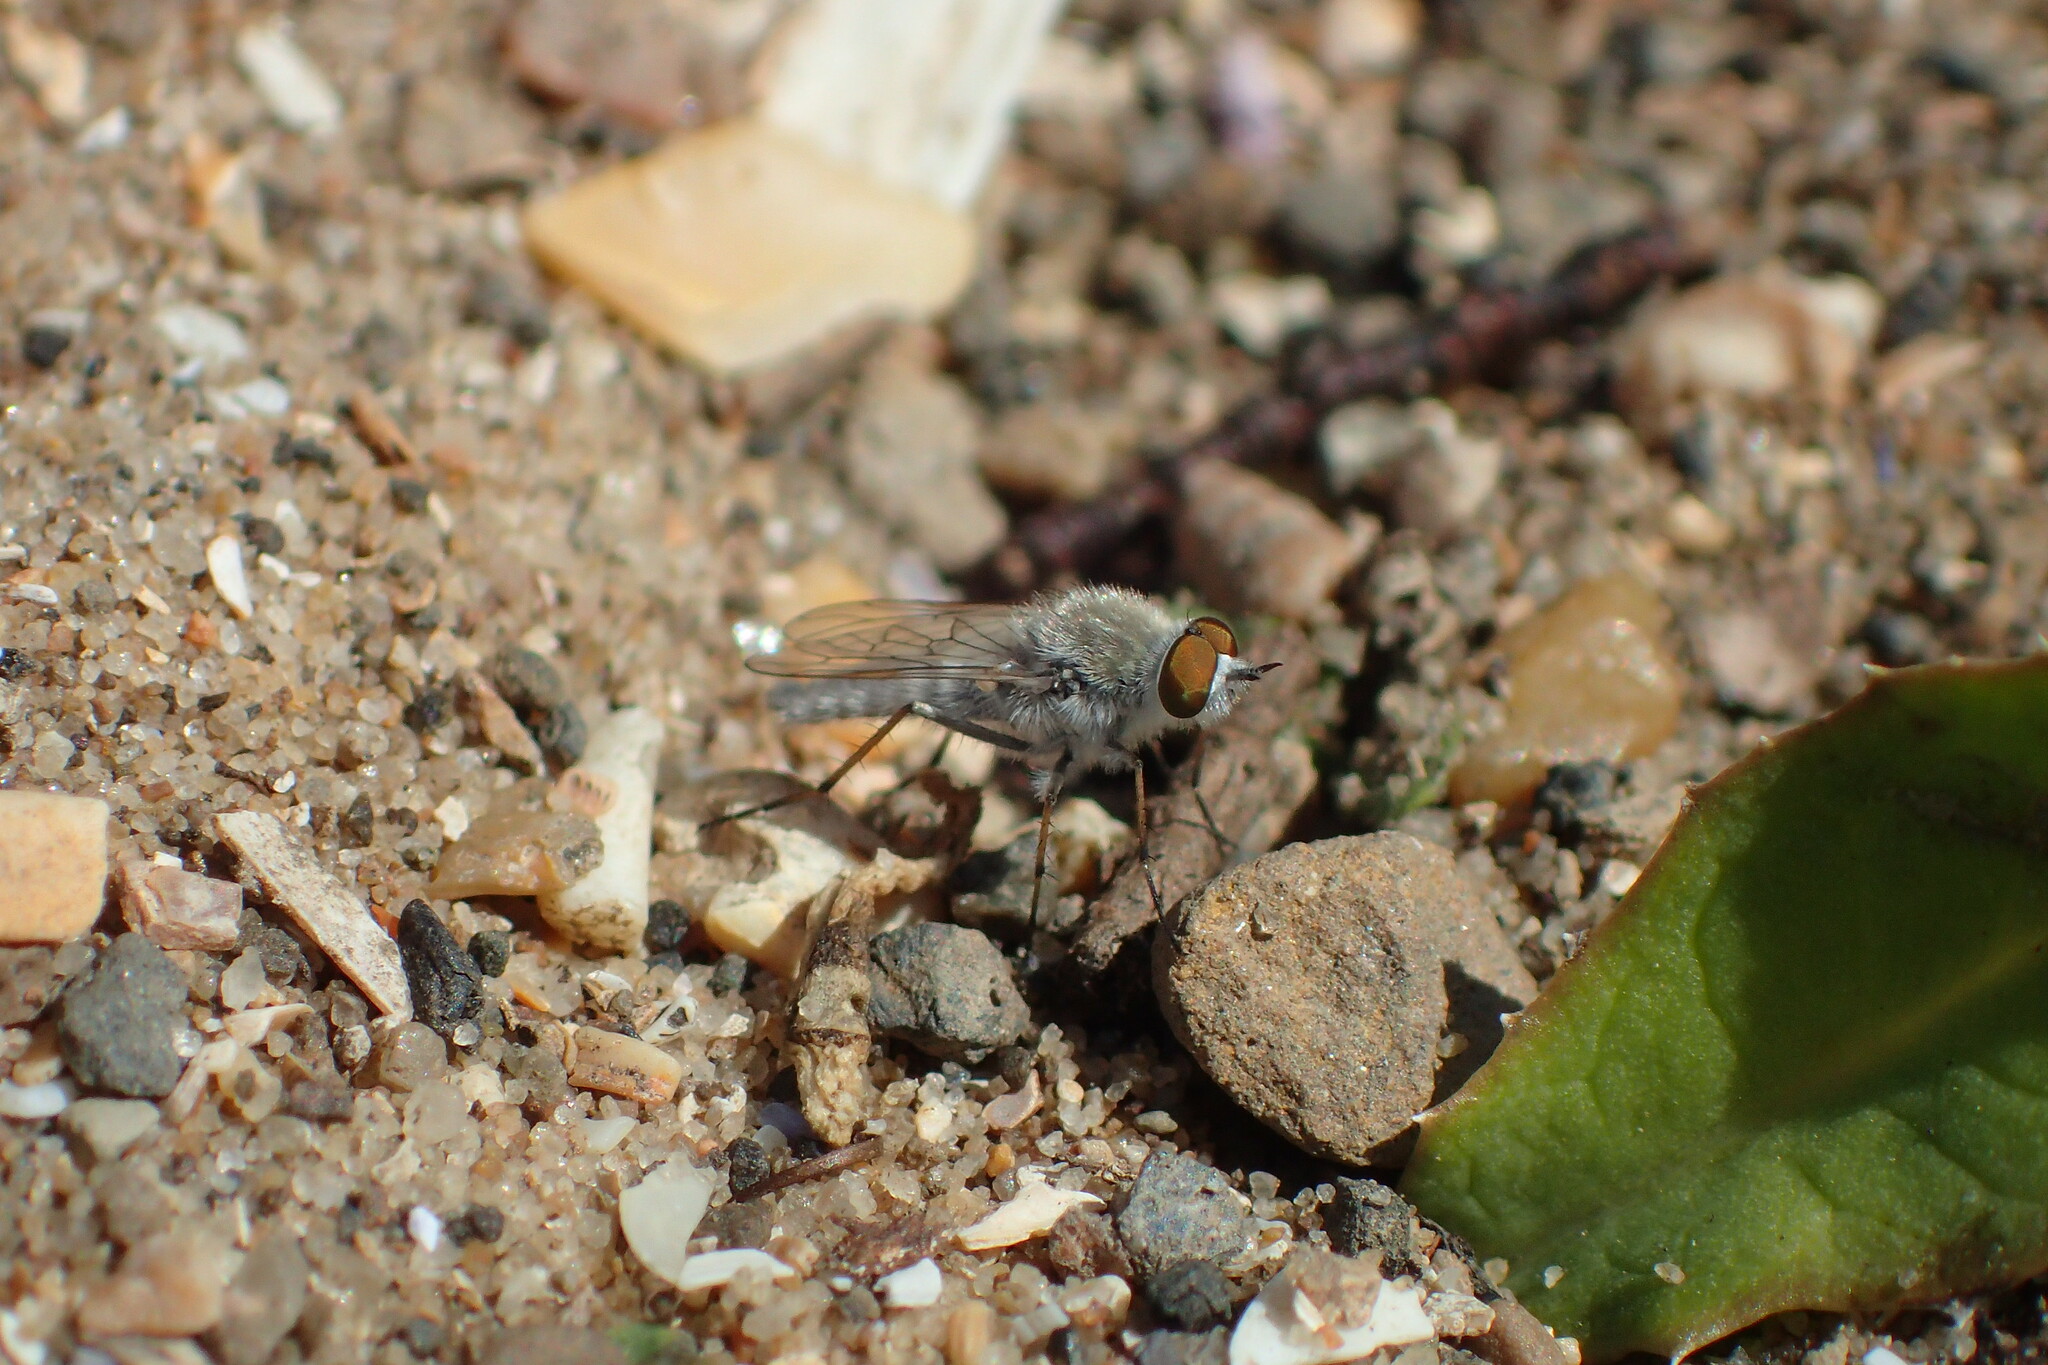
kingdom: Animalia
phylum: Arthropoda
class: Insecta
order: Diptera
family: Therevidae
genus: Acrosathe
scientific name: Acrosathe annulata
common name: Coastal silver-stiletto
